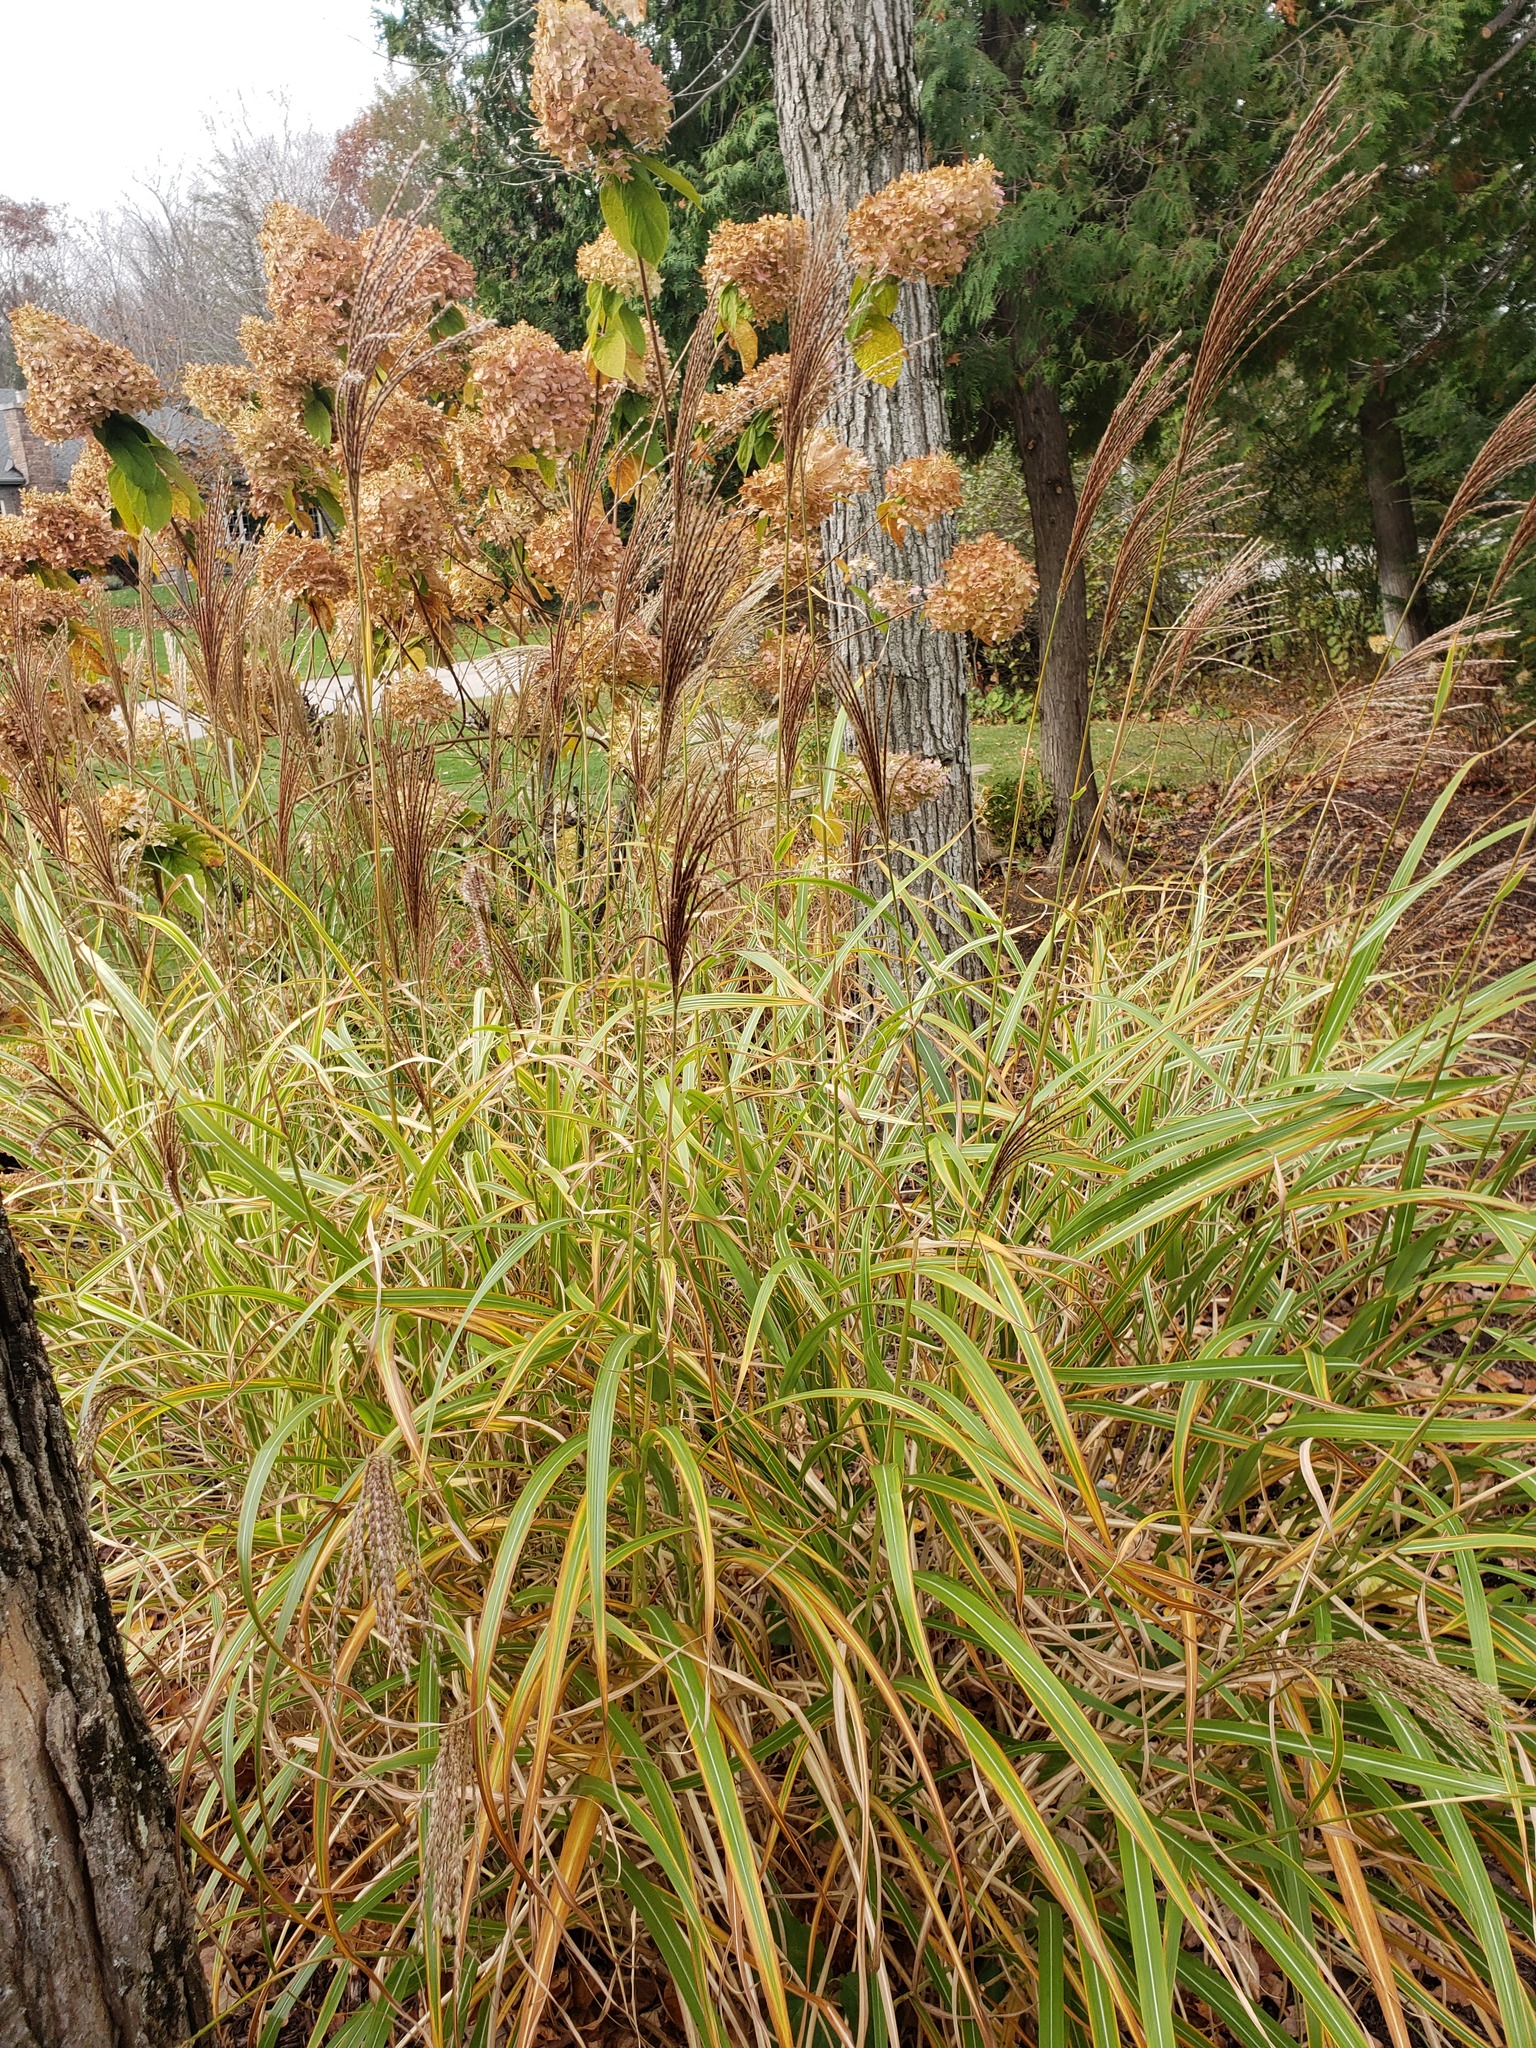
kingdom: Plantae
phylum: Tracheophyta
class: Liliopsida
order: Poales
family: Poaceae
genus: Miscanthus
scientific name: Miscanthus sinensis
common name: Chinese silvergrass
